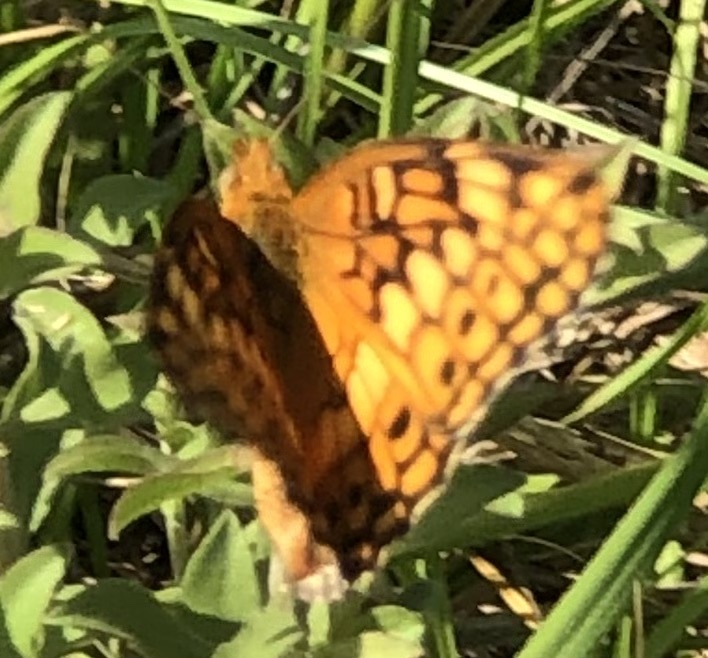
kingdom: Animalia
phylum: Arthropoda
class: Insecta
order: Lepidoptera
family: Nymphalidae
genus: Euptoieta
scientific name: Euptoieta claudia
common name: Variegated fritillary
